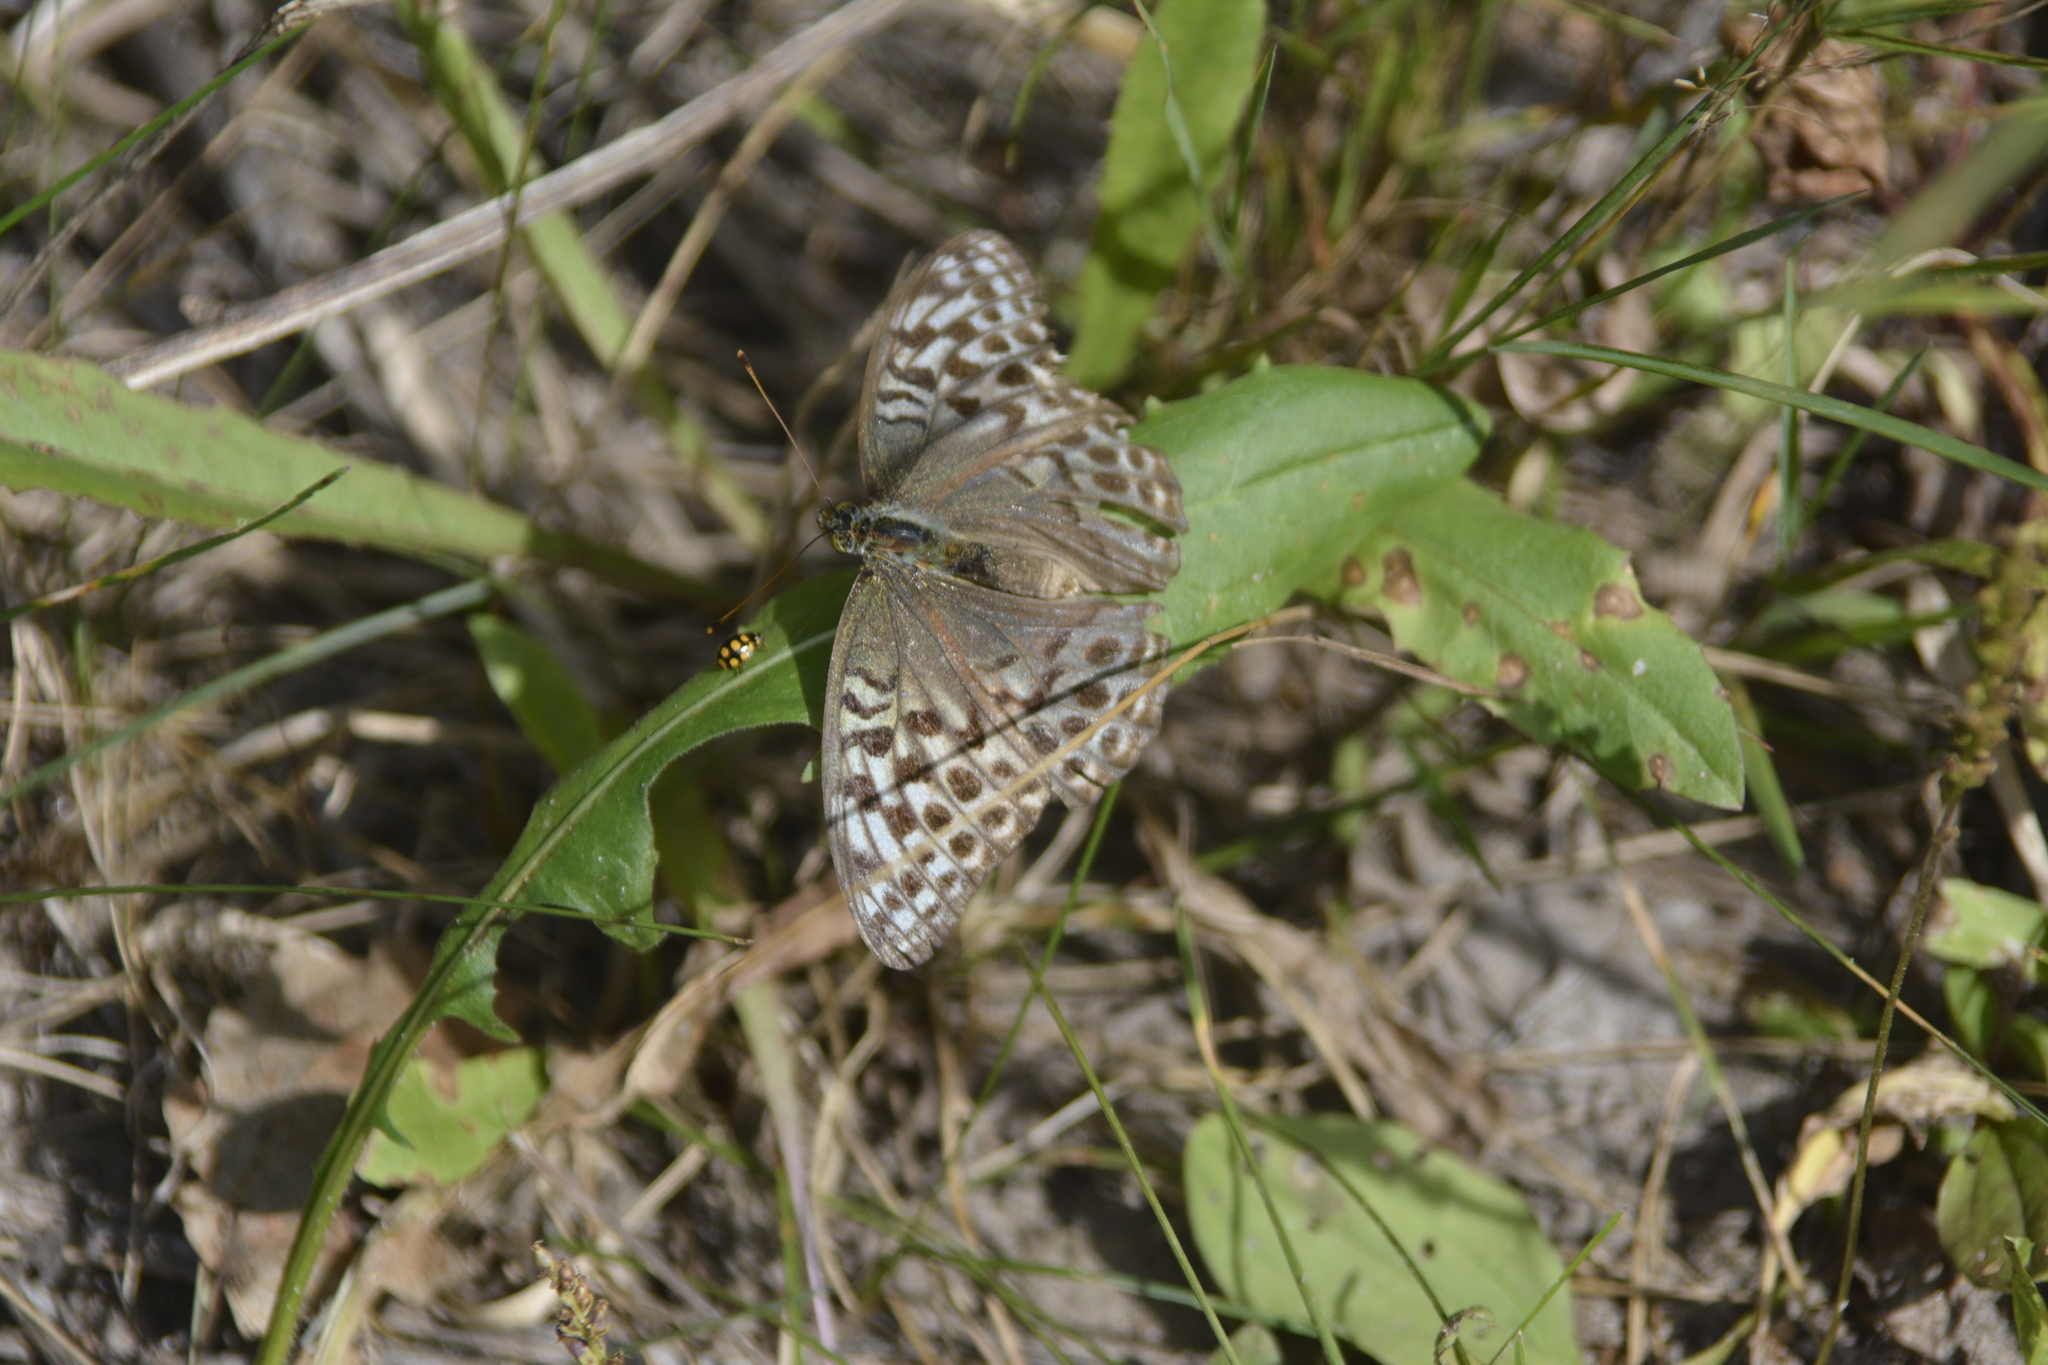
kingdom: Animalia
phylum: Arthropoda
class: Insecta
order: Lepidoptera
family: Nymphalidae
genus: Argynnis
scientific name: Argynnis paphia
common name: Silver-washed fritillary
